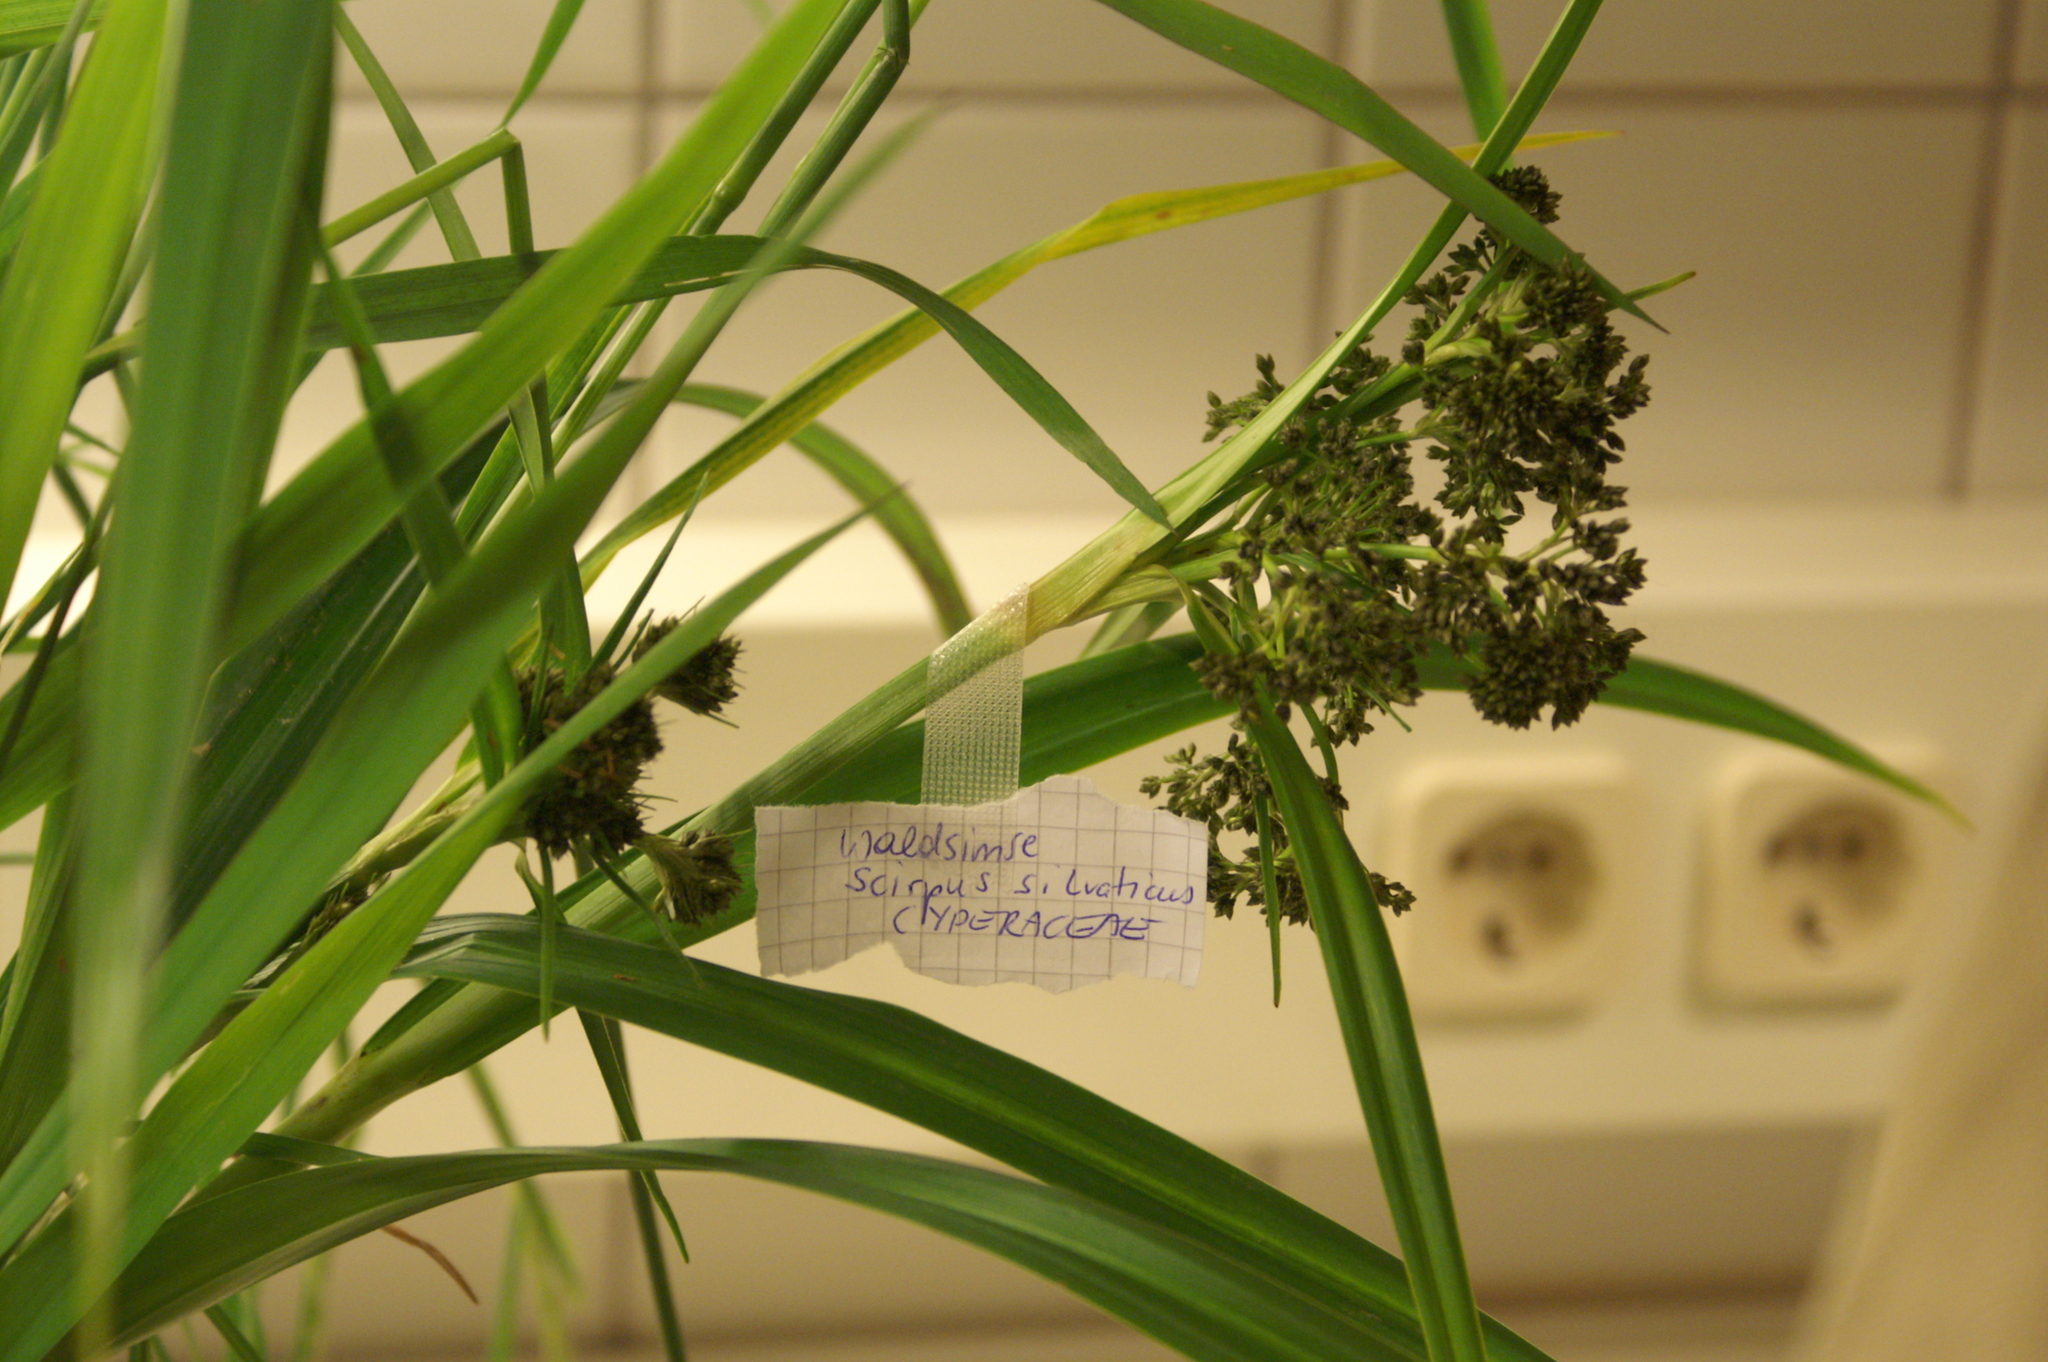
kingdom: Plantae
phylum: Tracheophyta
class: Liliopsida
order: Poales
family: Cyperaceae
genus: Scirpus
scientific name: Scirpus sylvaticus
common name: Wood club-rush
